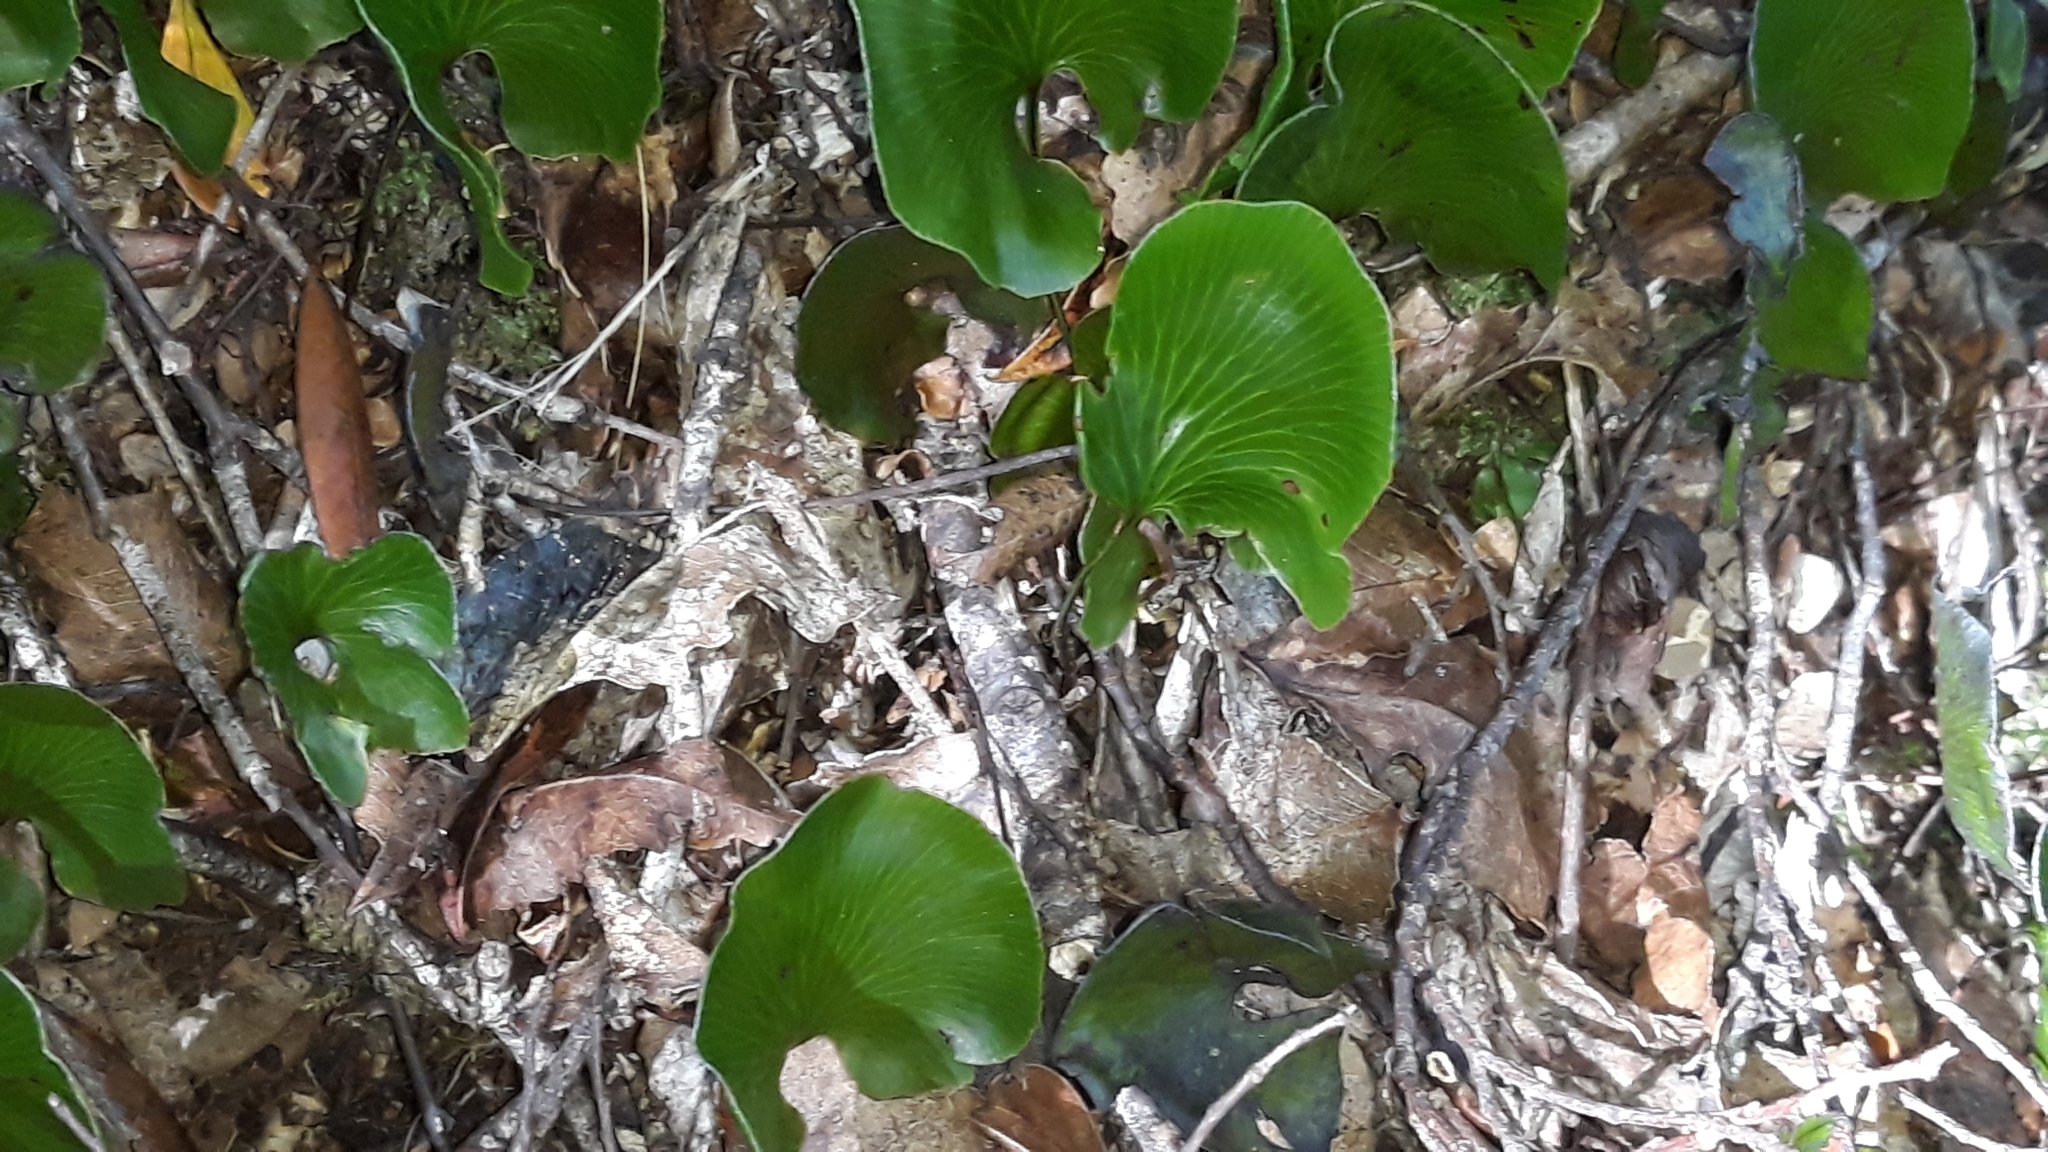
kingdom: Plantae
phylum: Tracheophyta
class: Polypodiopsida
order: Hymenophyllales
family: Hymenophyllaceae
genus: Hymenophyllum
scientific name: Hymenophyllum nephrophyllum
